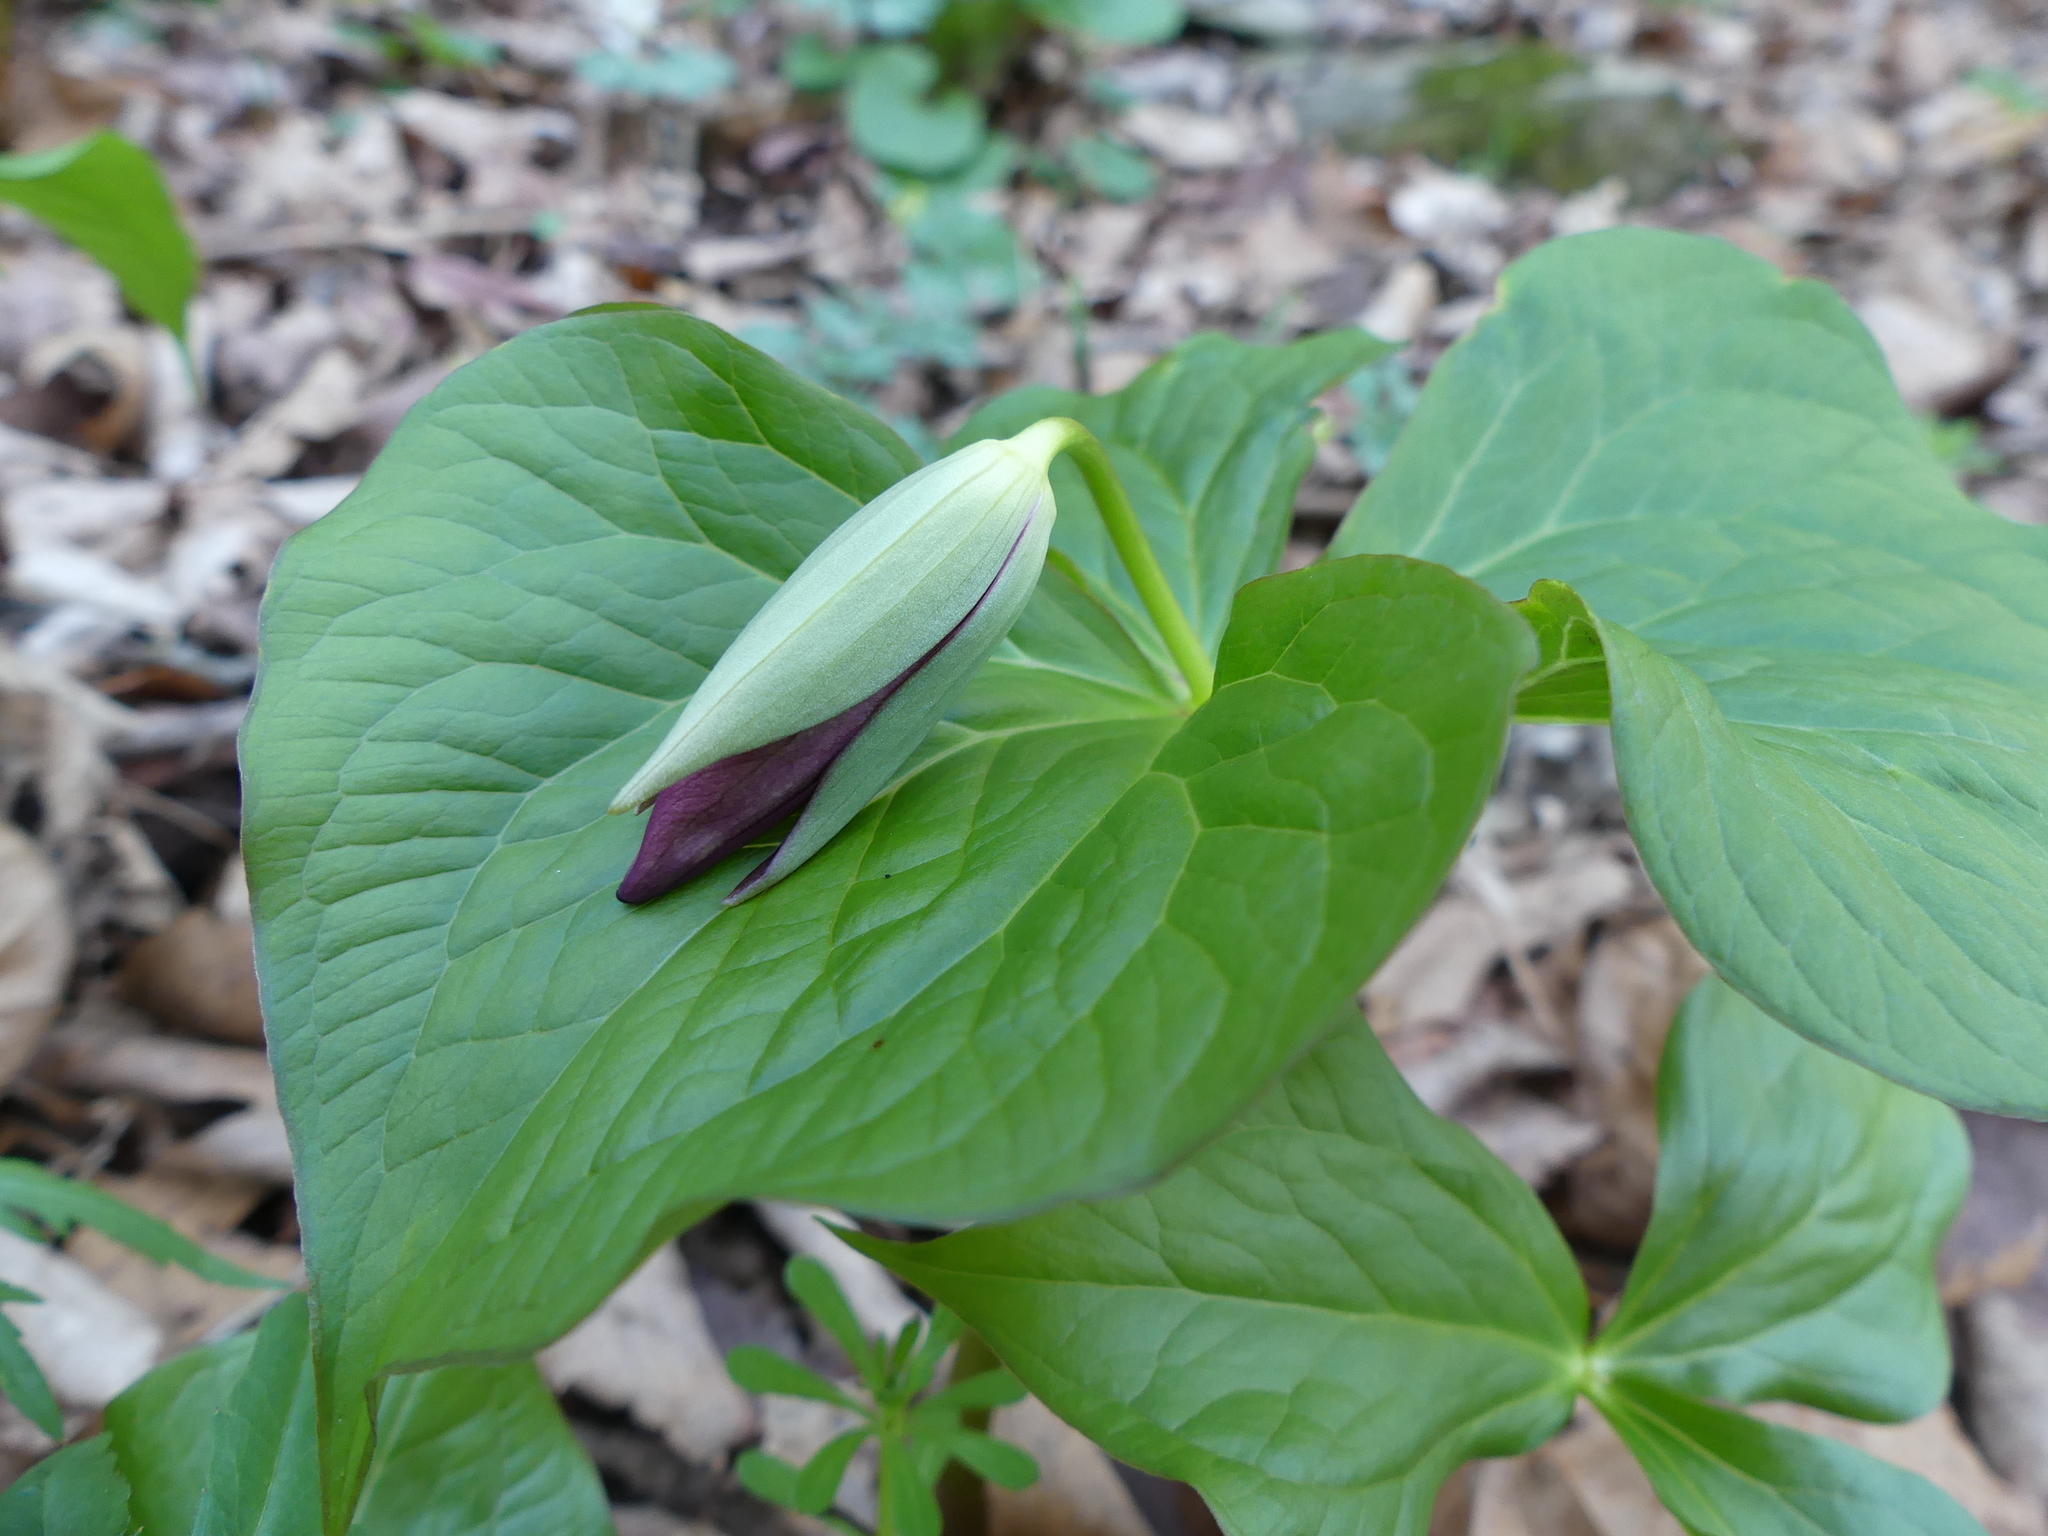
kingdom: Plantae
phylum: Tracheophyta
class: Liliopsida
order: Liliales
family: Melanthiaceae
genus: Trillium
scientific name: Trillium erectum
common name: Purple trillium
